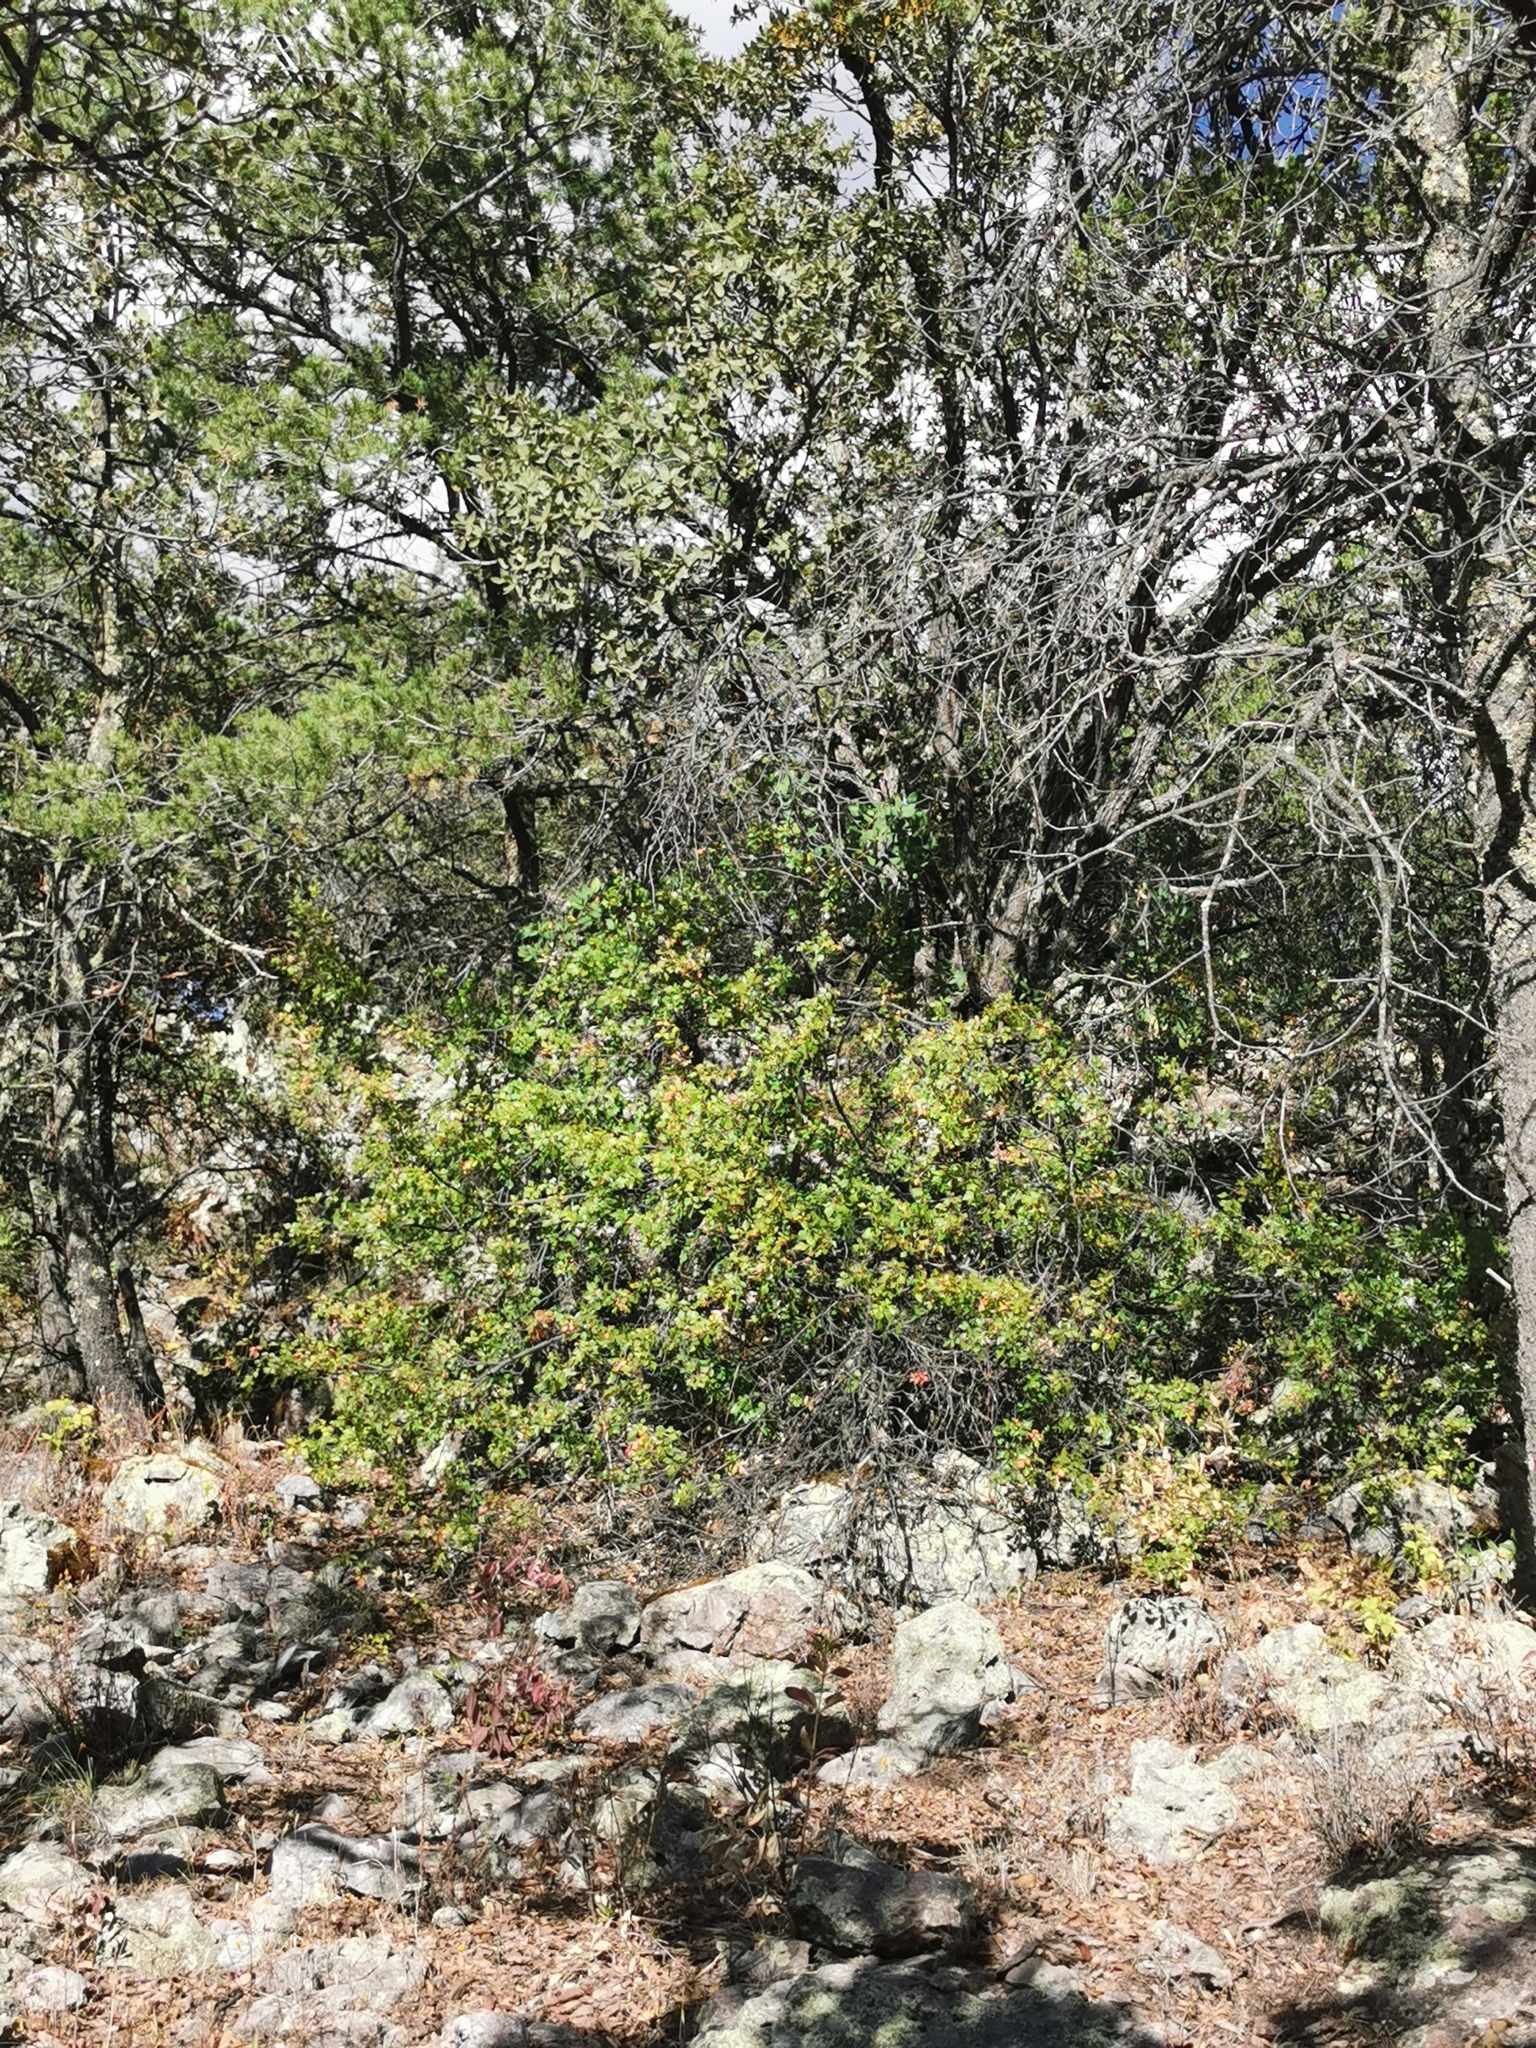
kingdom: Plantae
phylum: Tracheophyta
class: Magnoliopsida
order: Sapindales
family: Anacardiaceae
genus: Rhus
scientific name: Rhus trilobata
